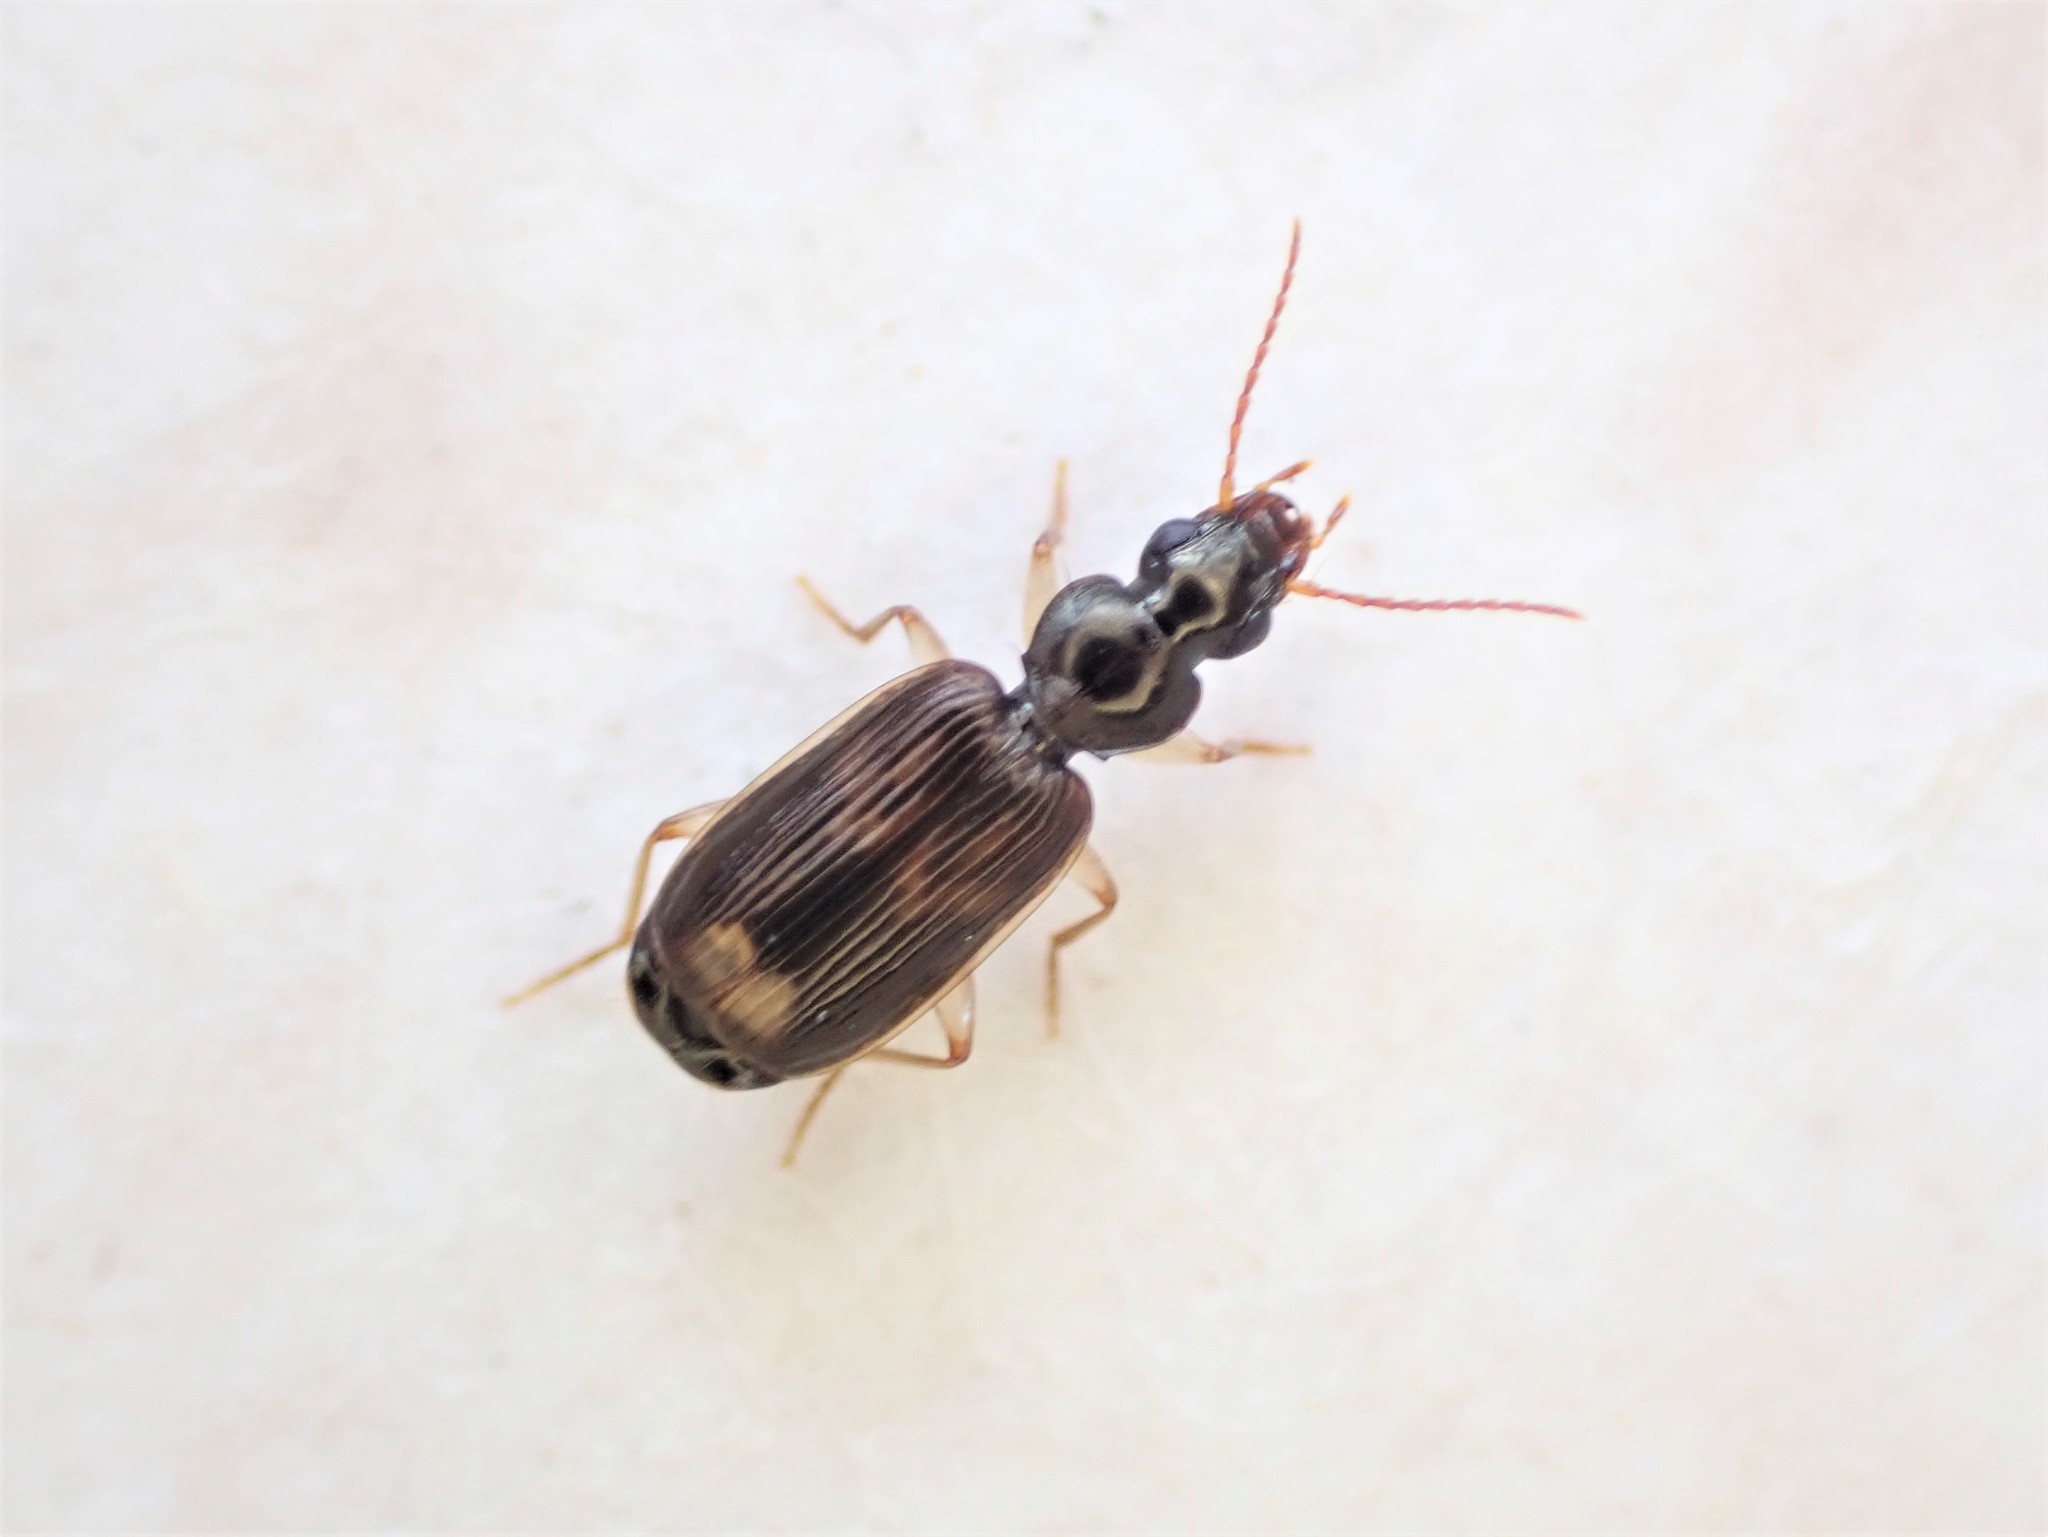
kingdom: Animalia
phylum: Arthropoda
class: Insecta
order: Coleoptera
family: Carabidae
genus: Anomotarus
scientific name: Anomotarus variegatus
